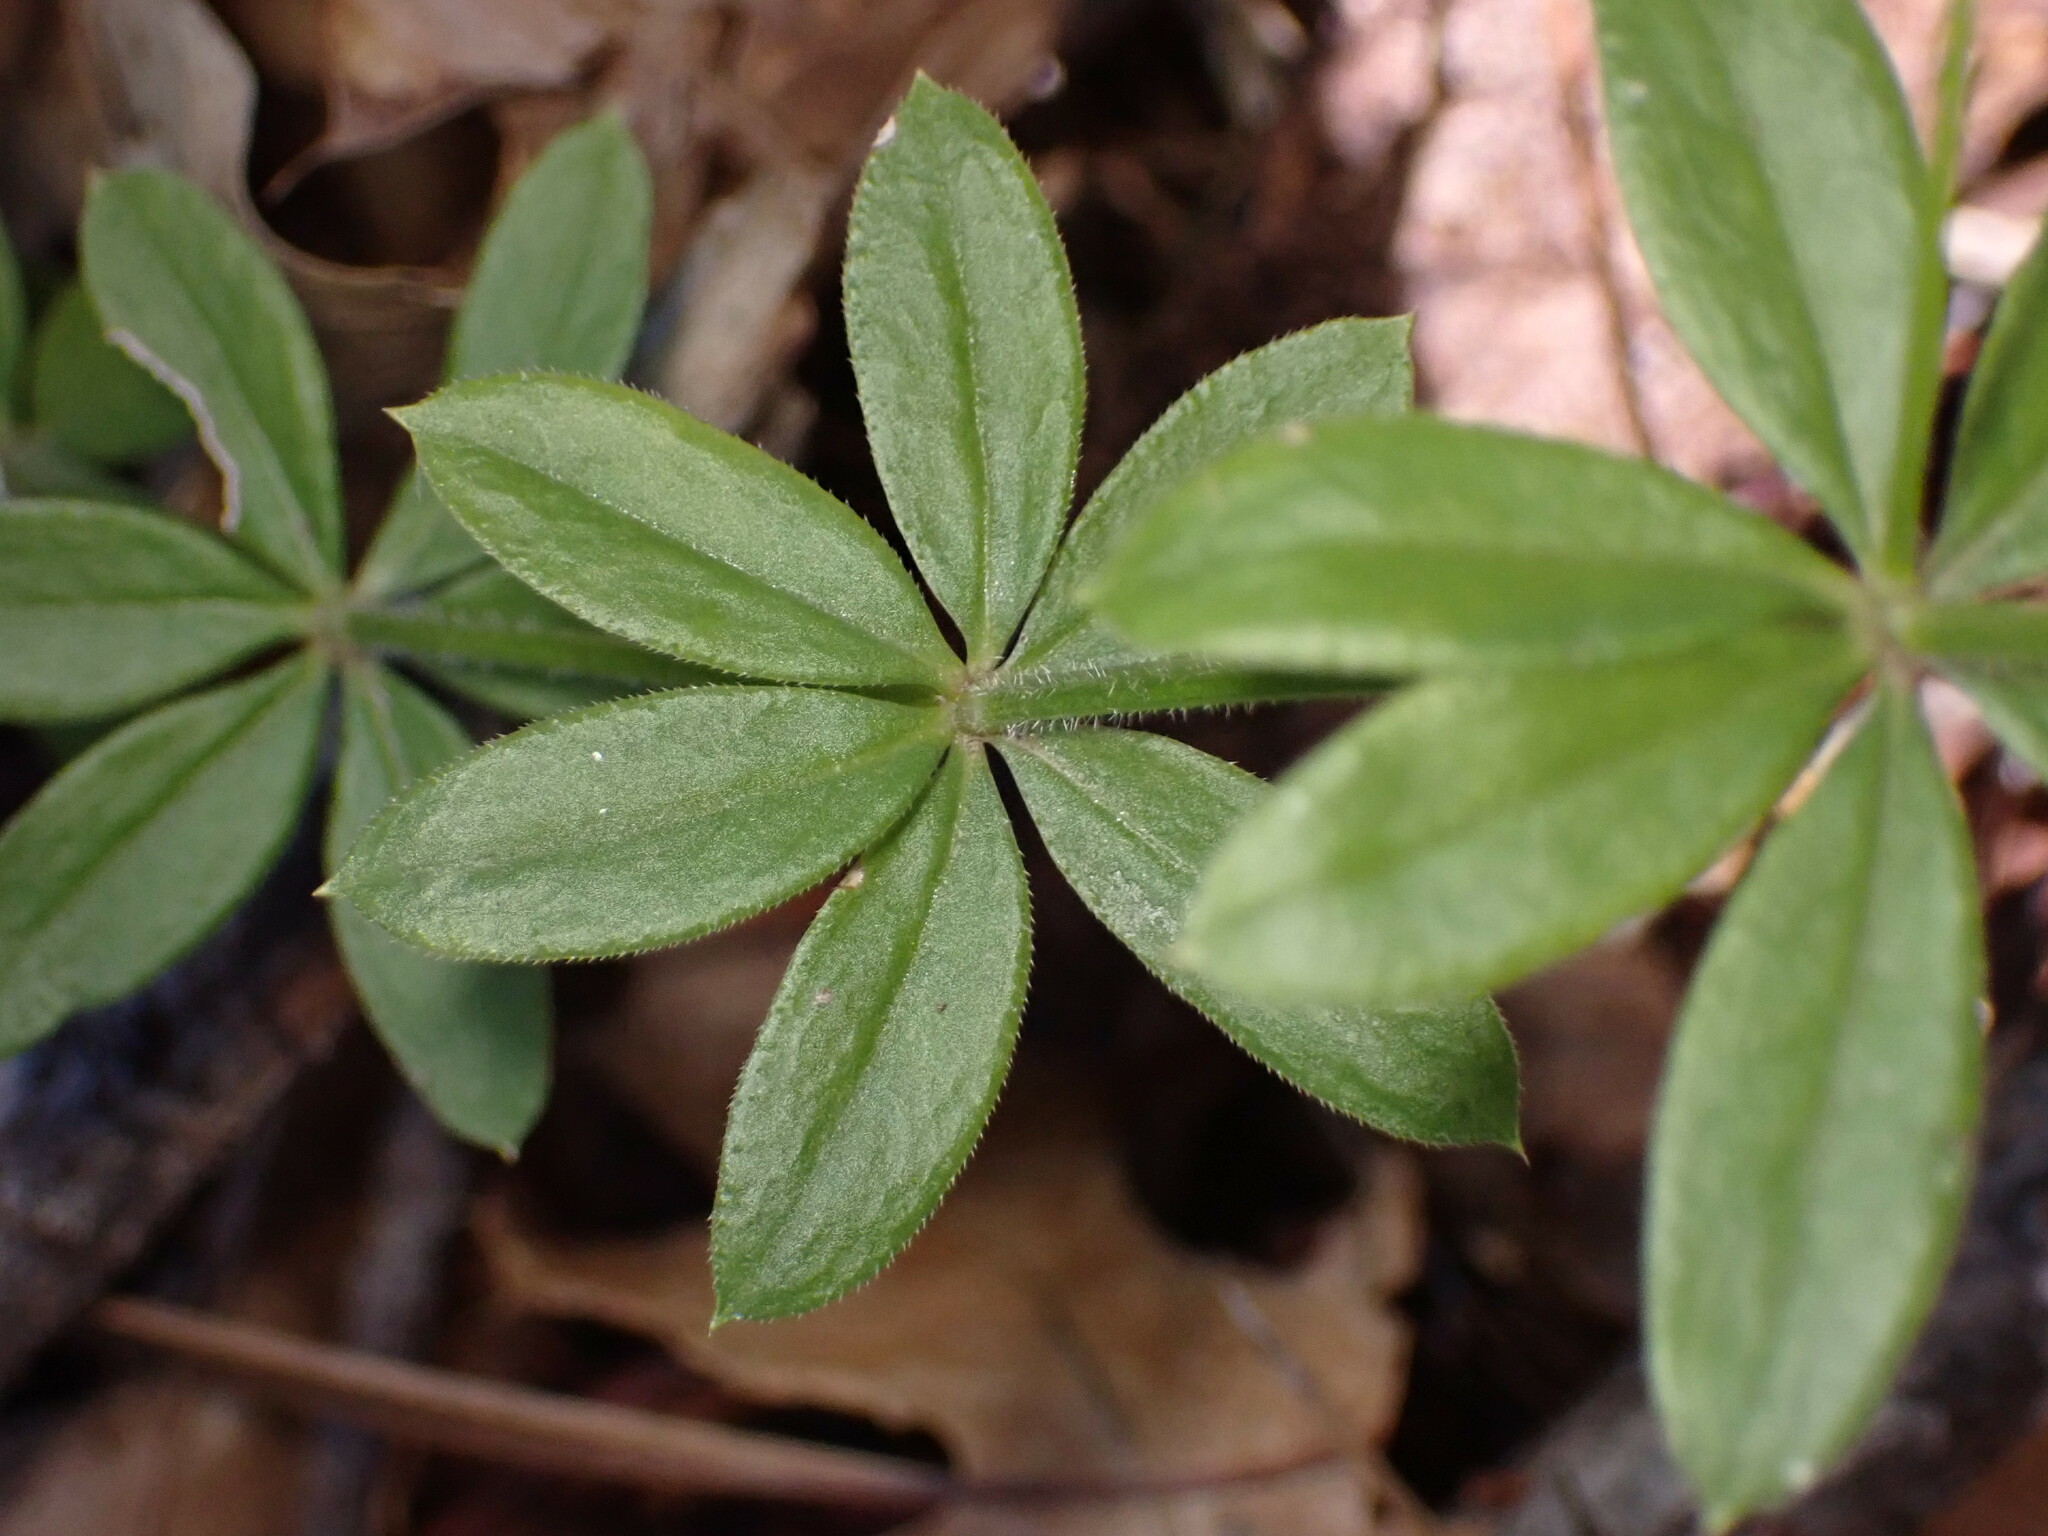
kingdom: Plantae
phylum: Tracheophyta
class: Magnoliopsida
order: Gentianales
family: Rubiaceae
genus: Galium
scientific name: Galium triflorum
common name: Fragrant bedstraw
